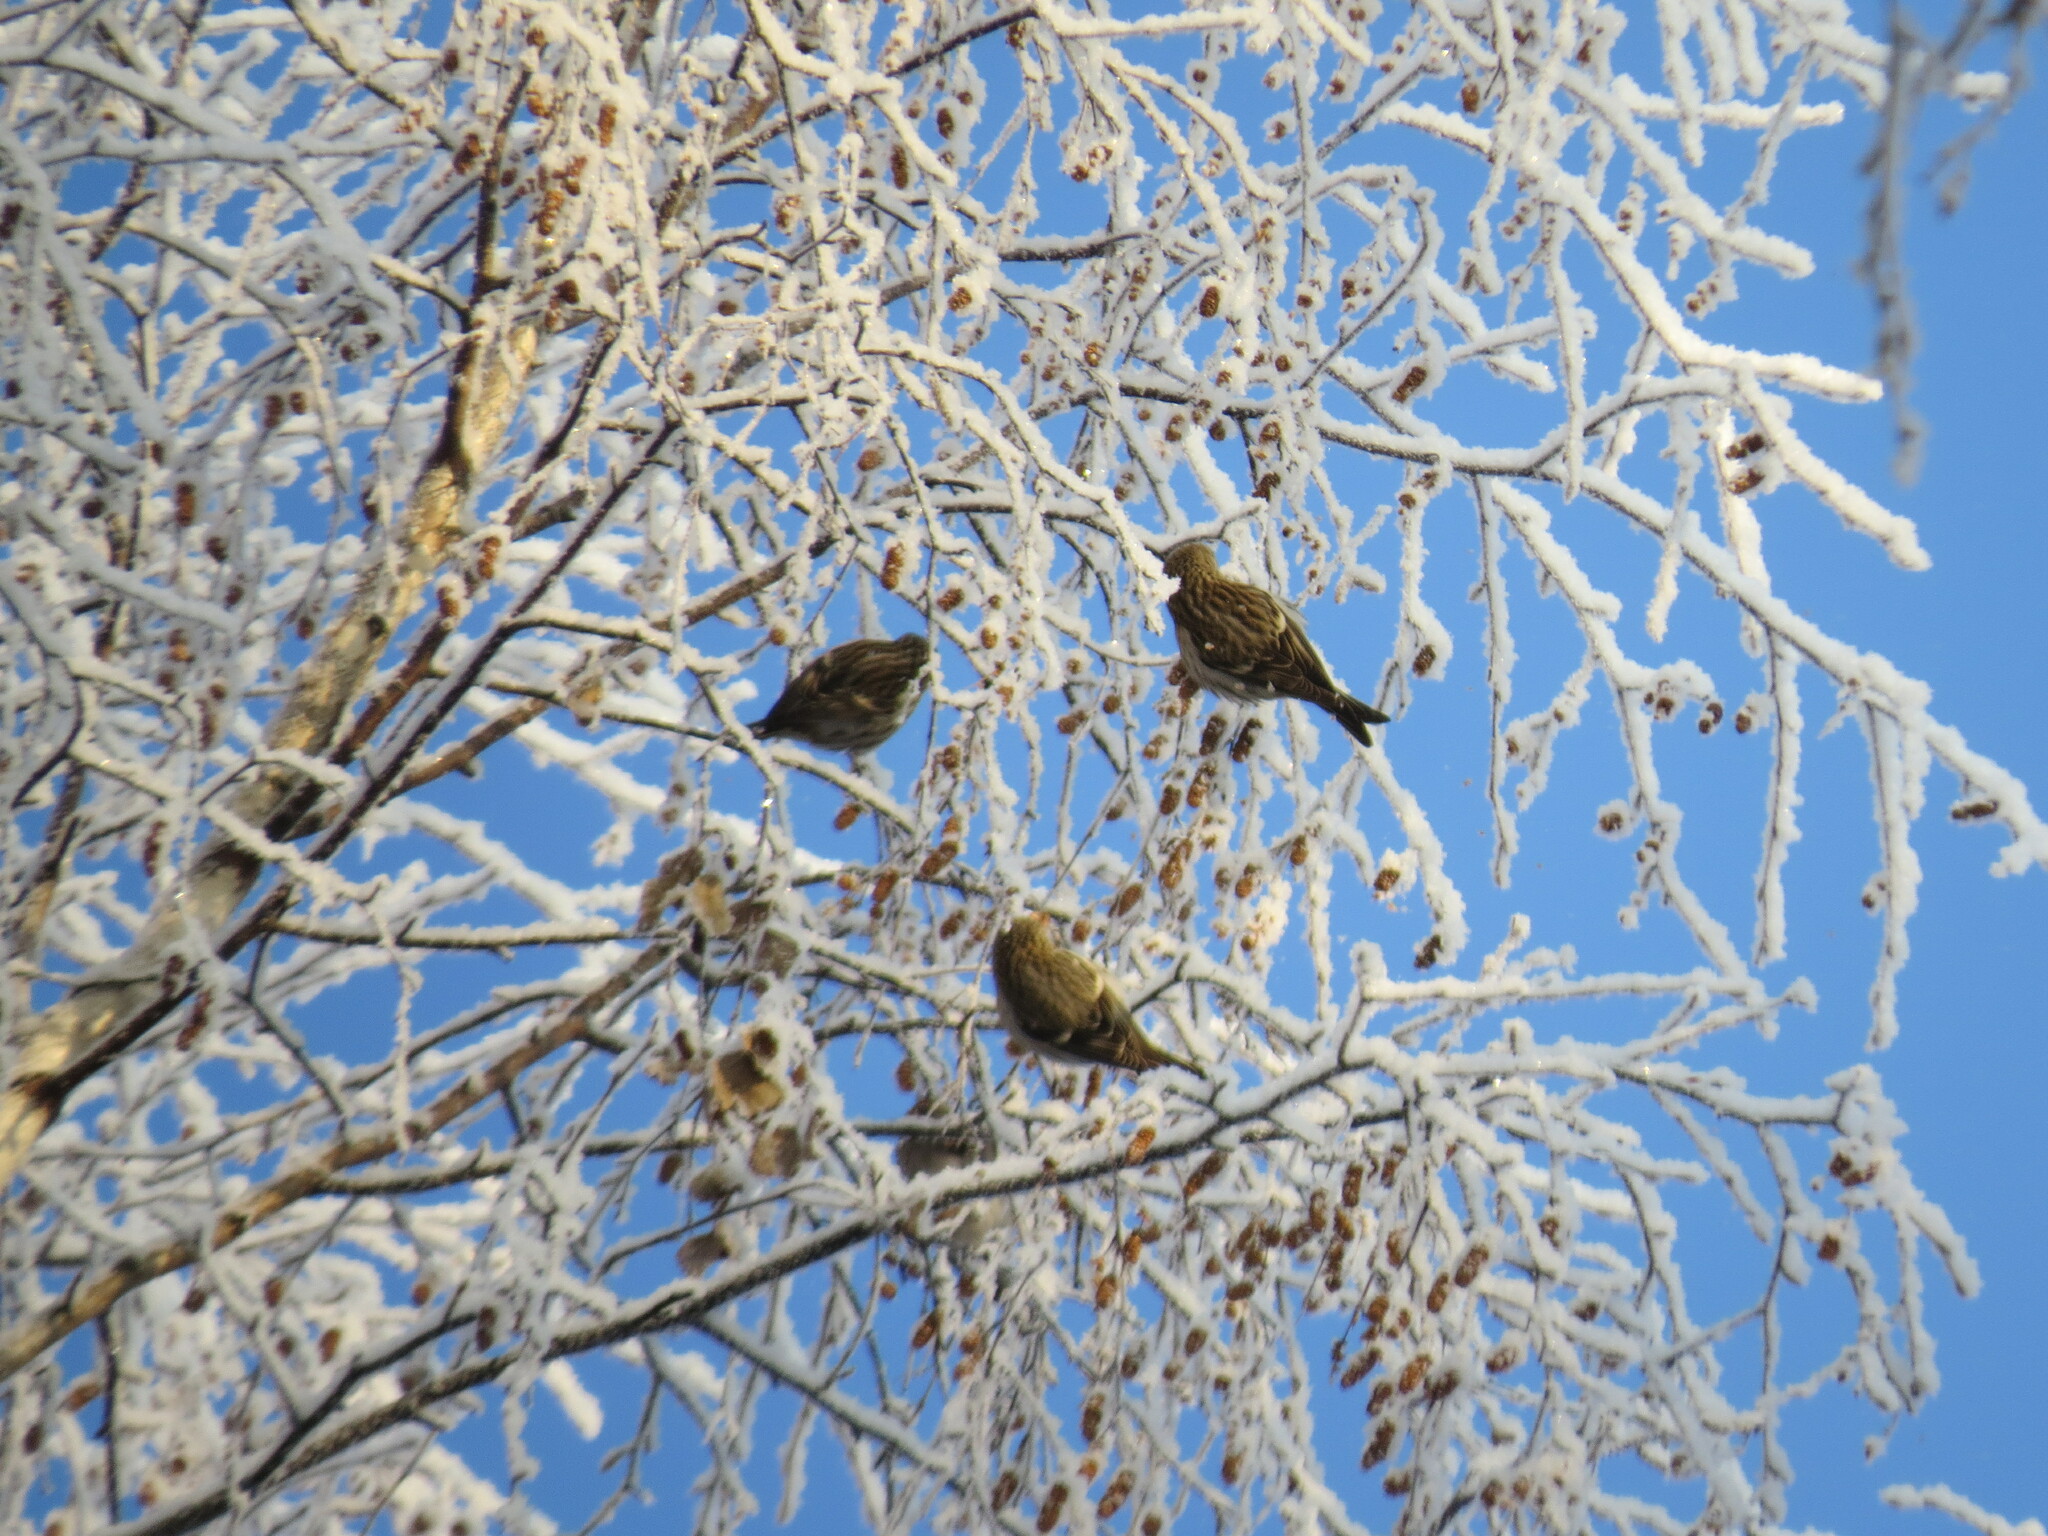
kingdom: Animalia
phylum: Chordata
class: Aves
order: Passeriformes
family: Fringillidae
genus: Acanthis
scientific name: Acanthis flammea
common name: Common redpoll
